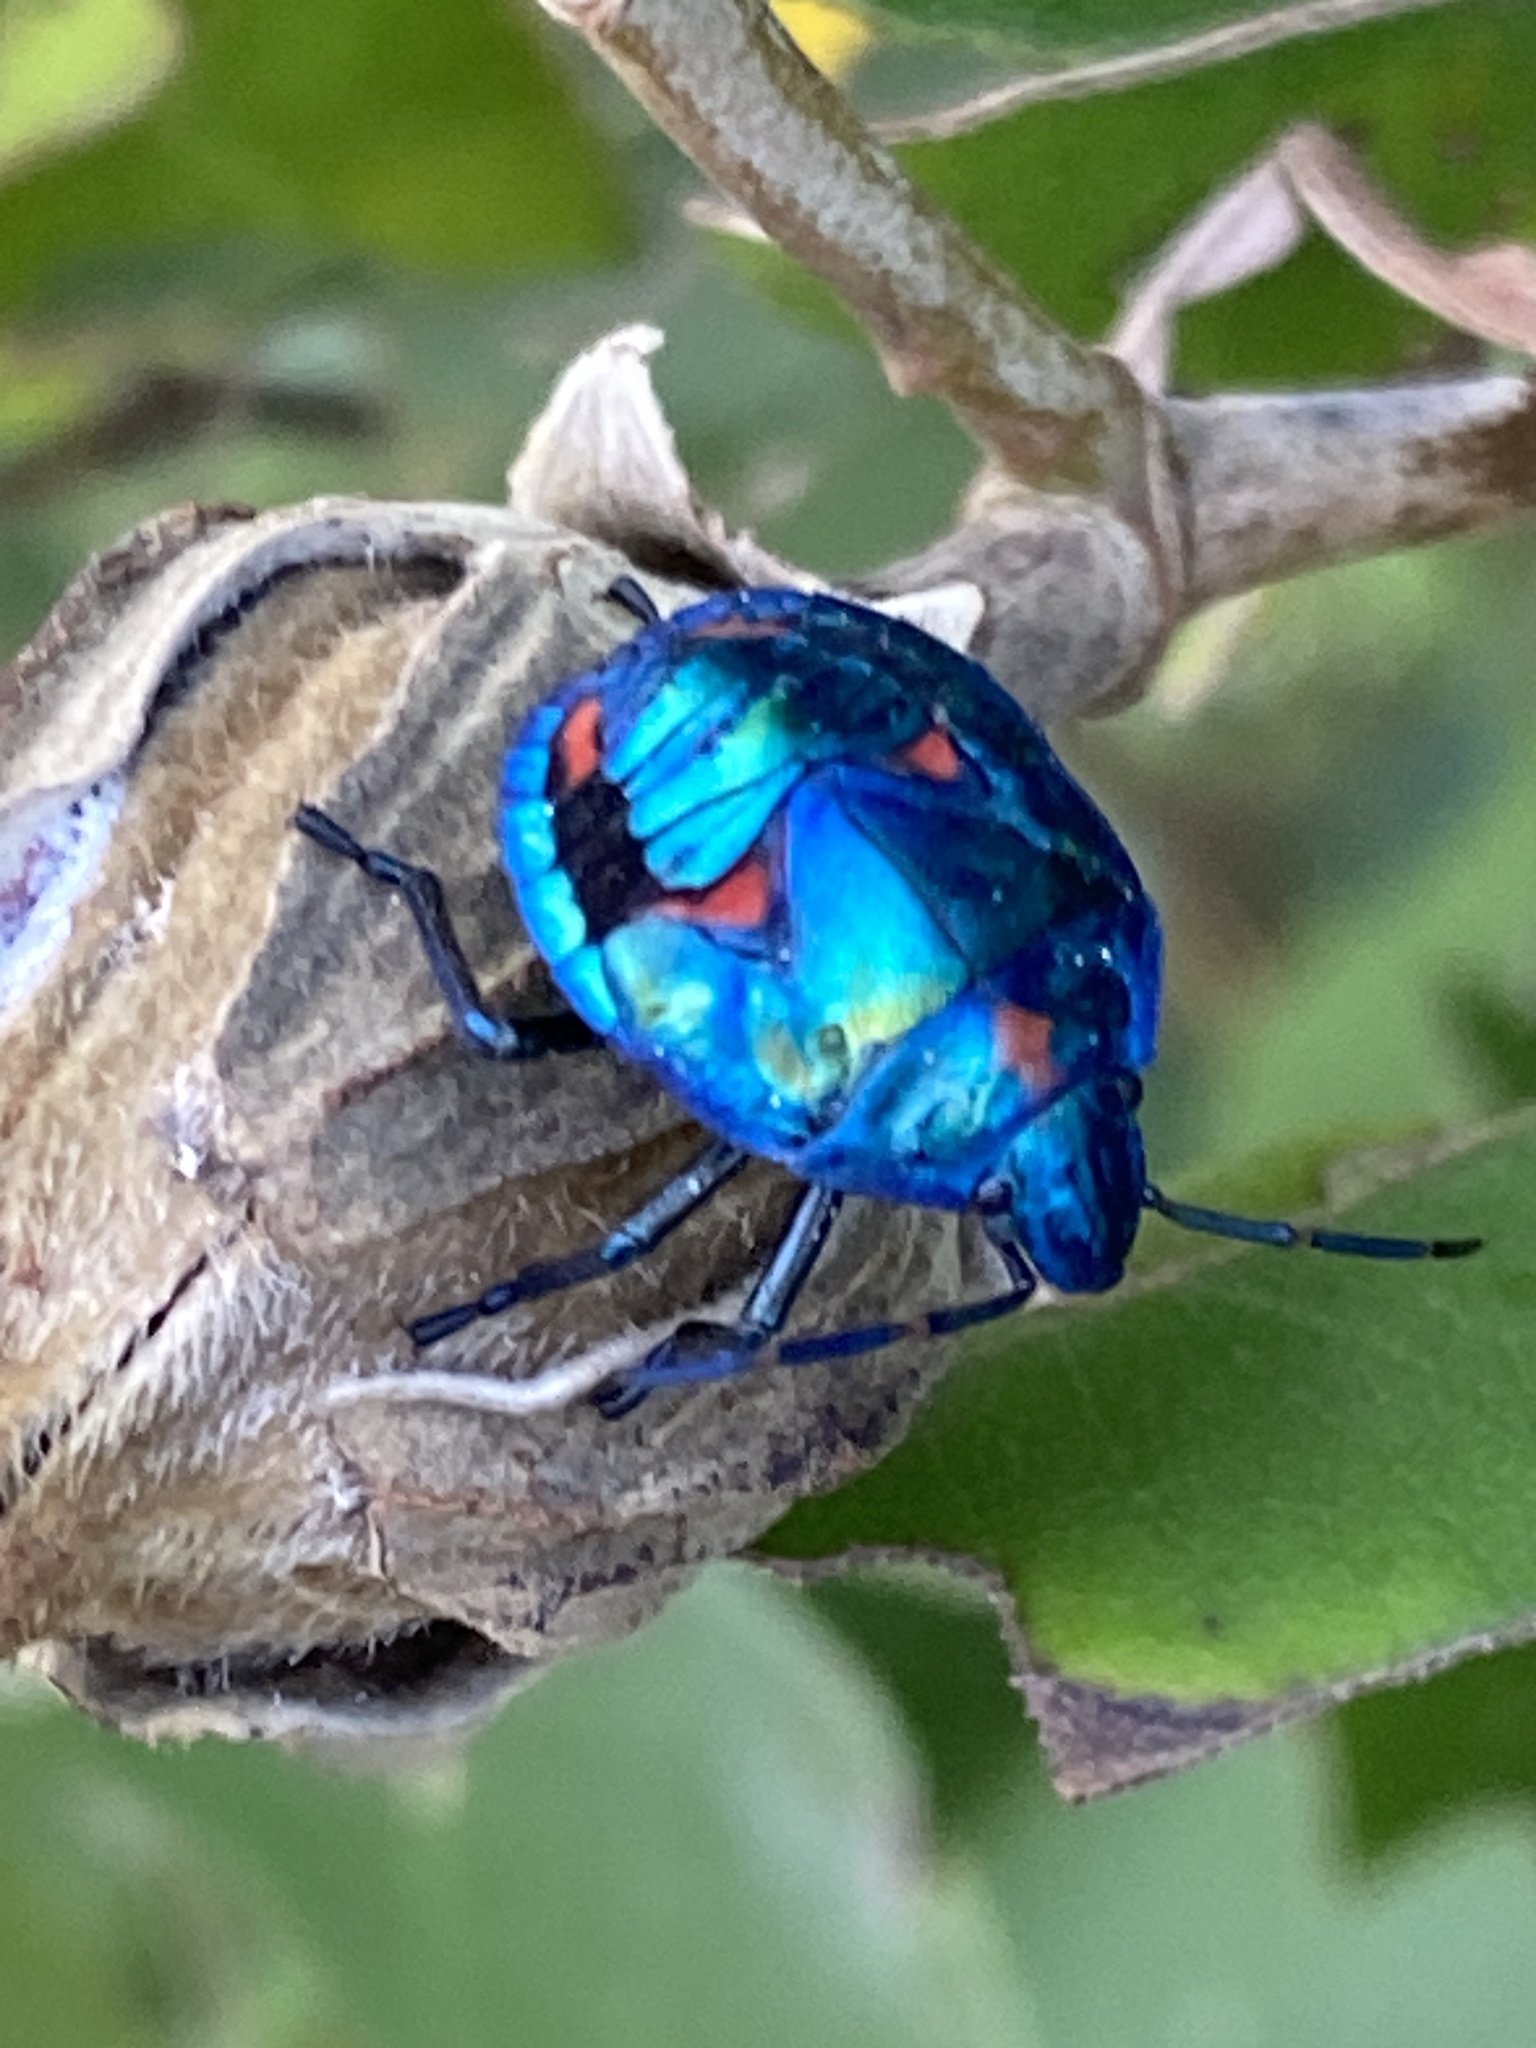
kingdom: Animalia
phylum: Arthropoda
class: Insecta
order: Hemiptera
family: Scutelleridae
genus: Tectocoris
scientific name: Tectocoris diophthalmus
